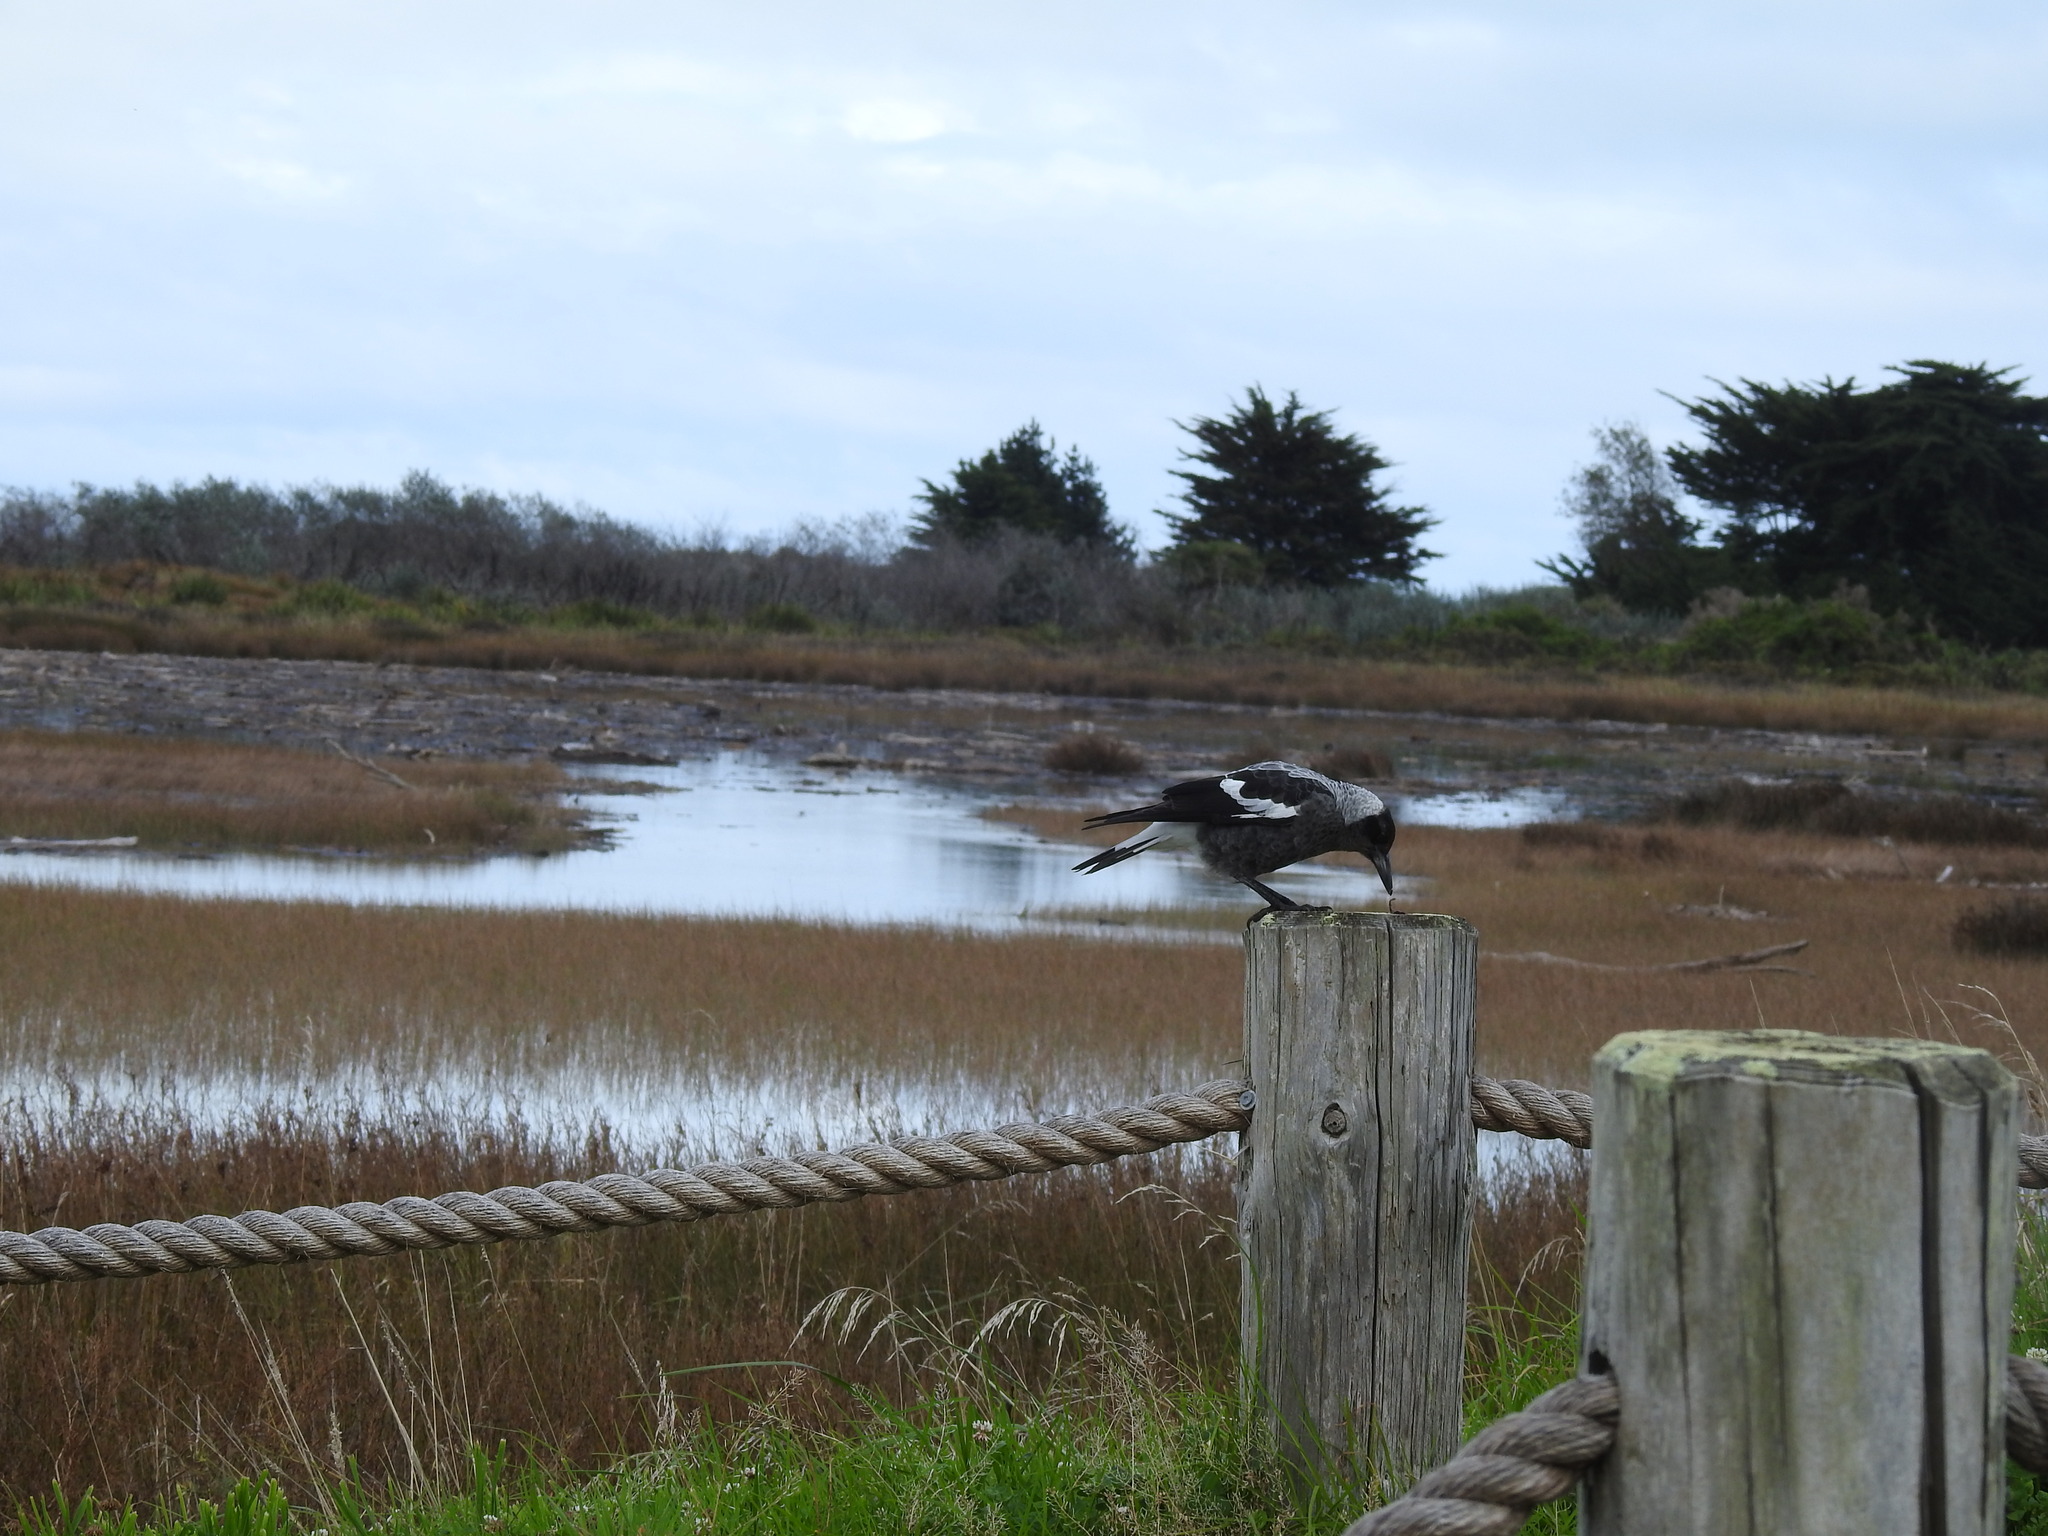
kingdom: Animalia
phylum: Chordata
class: Aves
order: Passeriformes
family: Cracticidae
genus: Gymnorhina
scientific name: Gymnorhina tibicen
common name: Australian magpie
